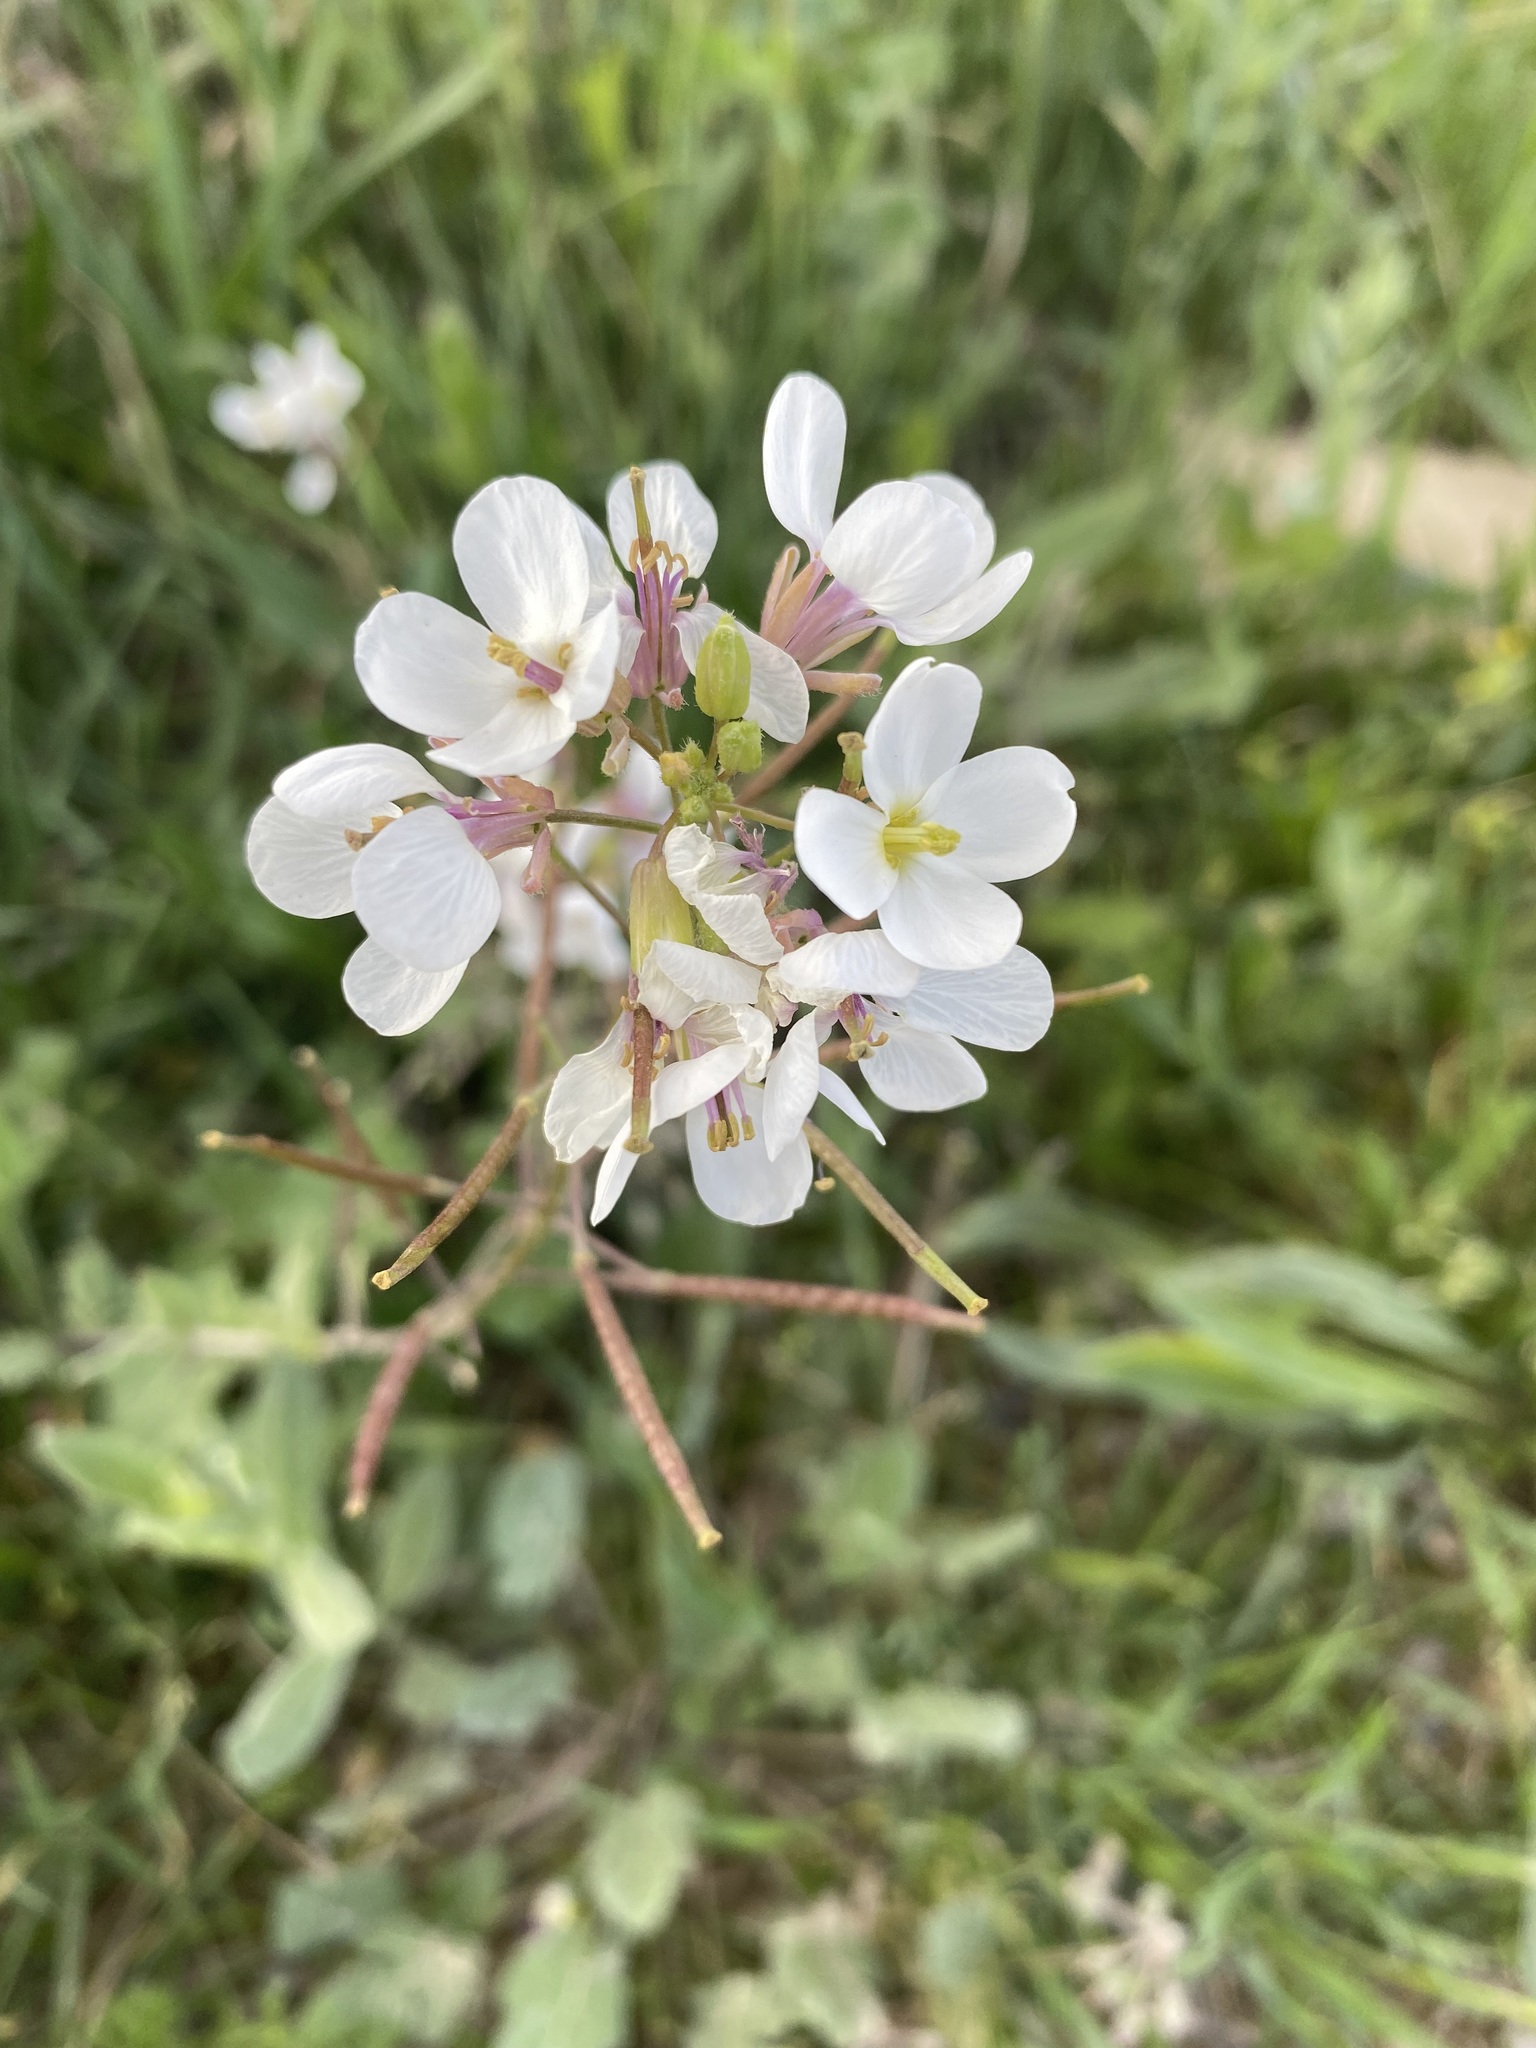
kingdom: Plantae
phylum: Tracheophyta
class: Magnoliopsida
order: Brassicales
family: Brassicaceae
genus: Diplotaxis
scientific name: Diplotaxis erucoides
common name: White rocket
